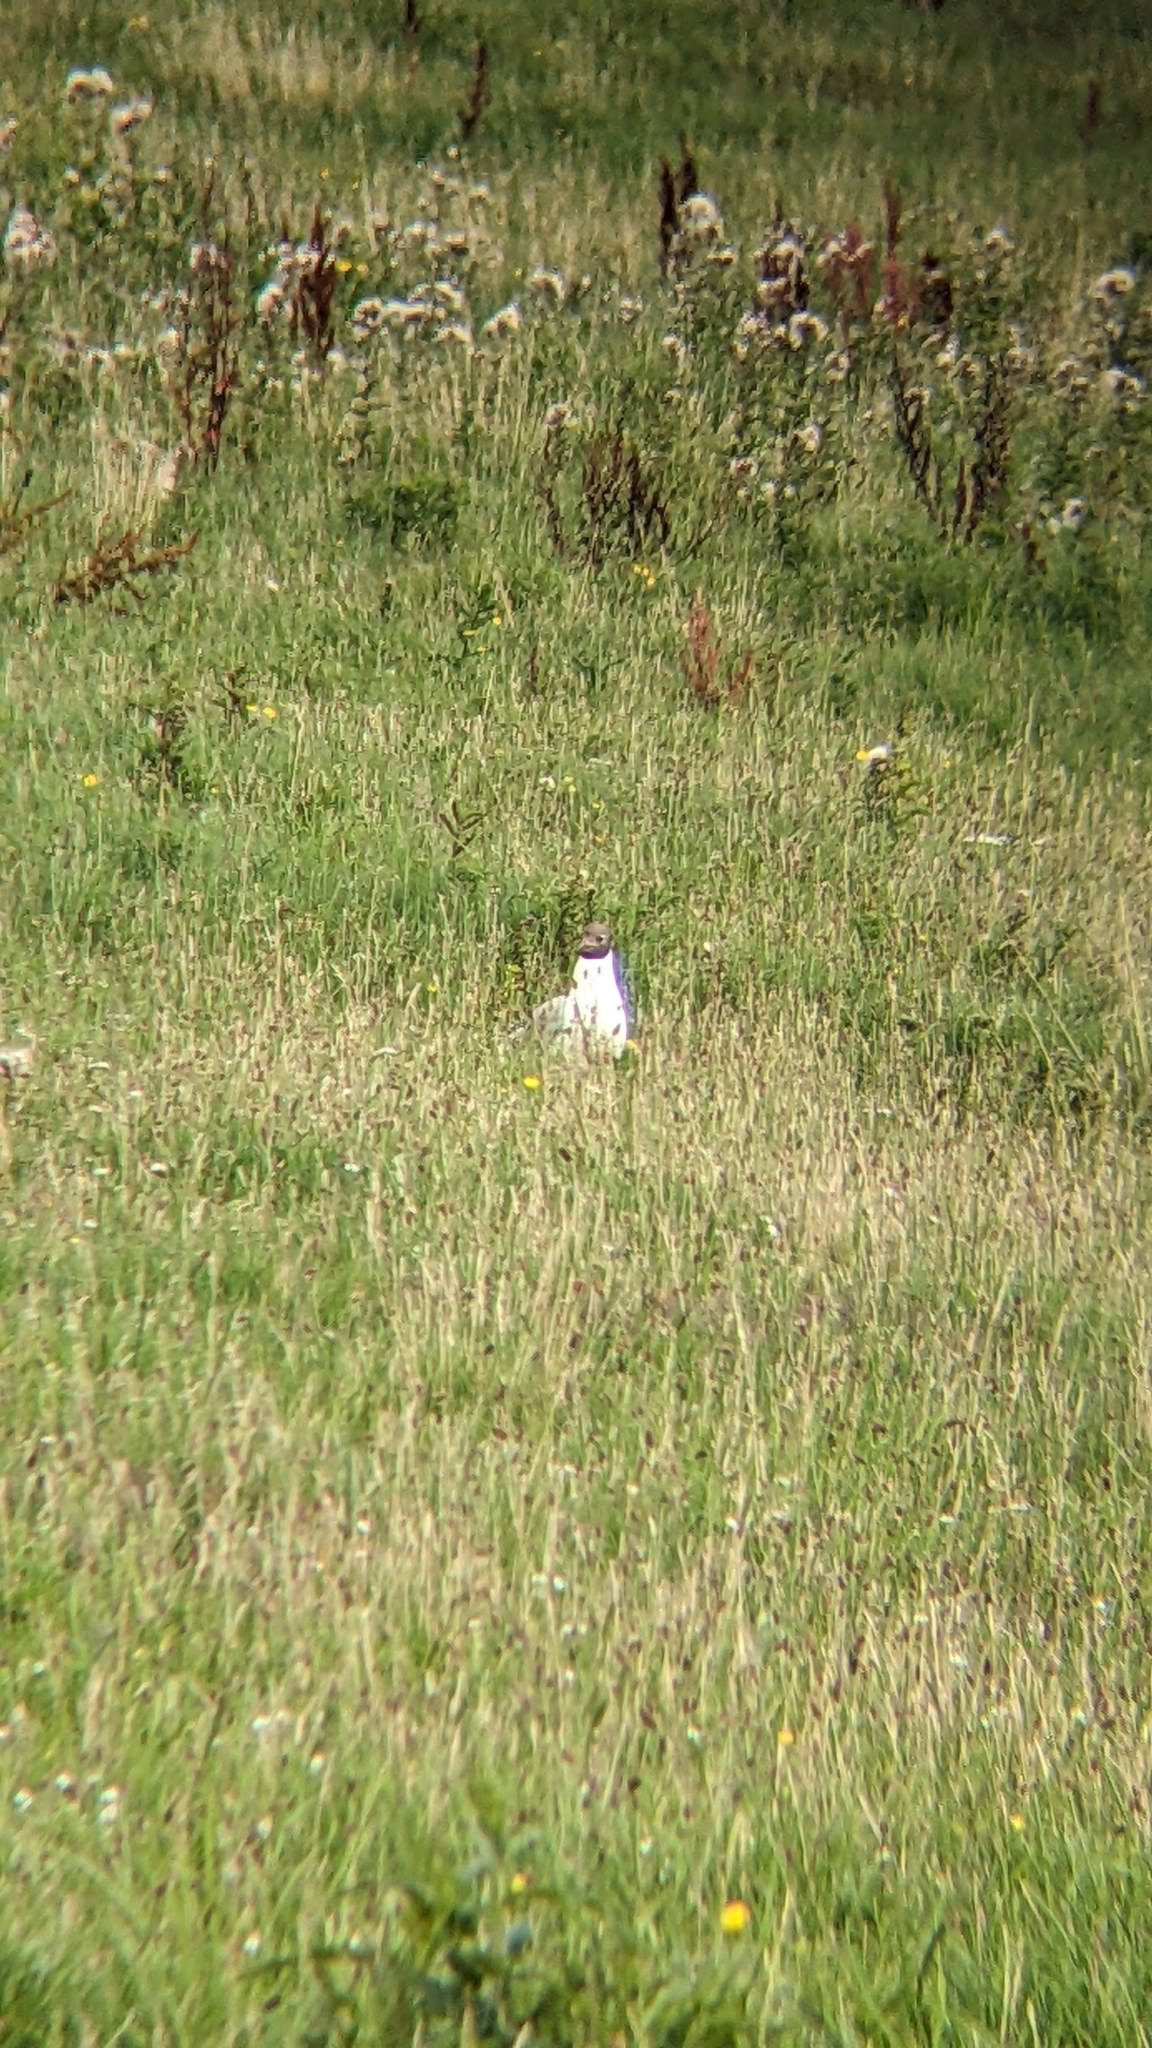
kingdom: Animalia
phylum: Chordata
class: Aves
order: Charadriiformes
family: Laridae
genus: Chroicocephalus
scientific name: Chroicocephalus ridibundus
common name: Black-headed gull
